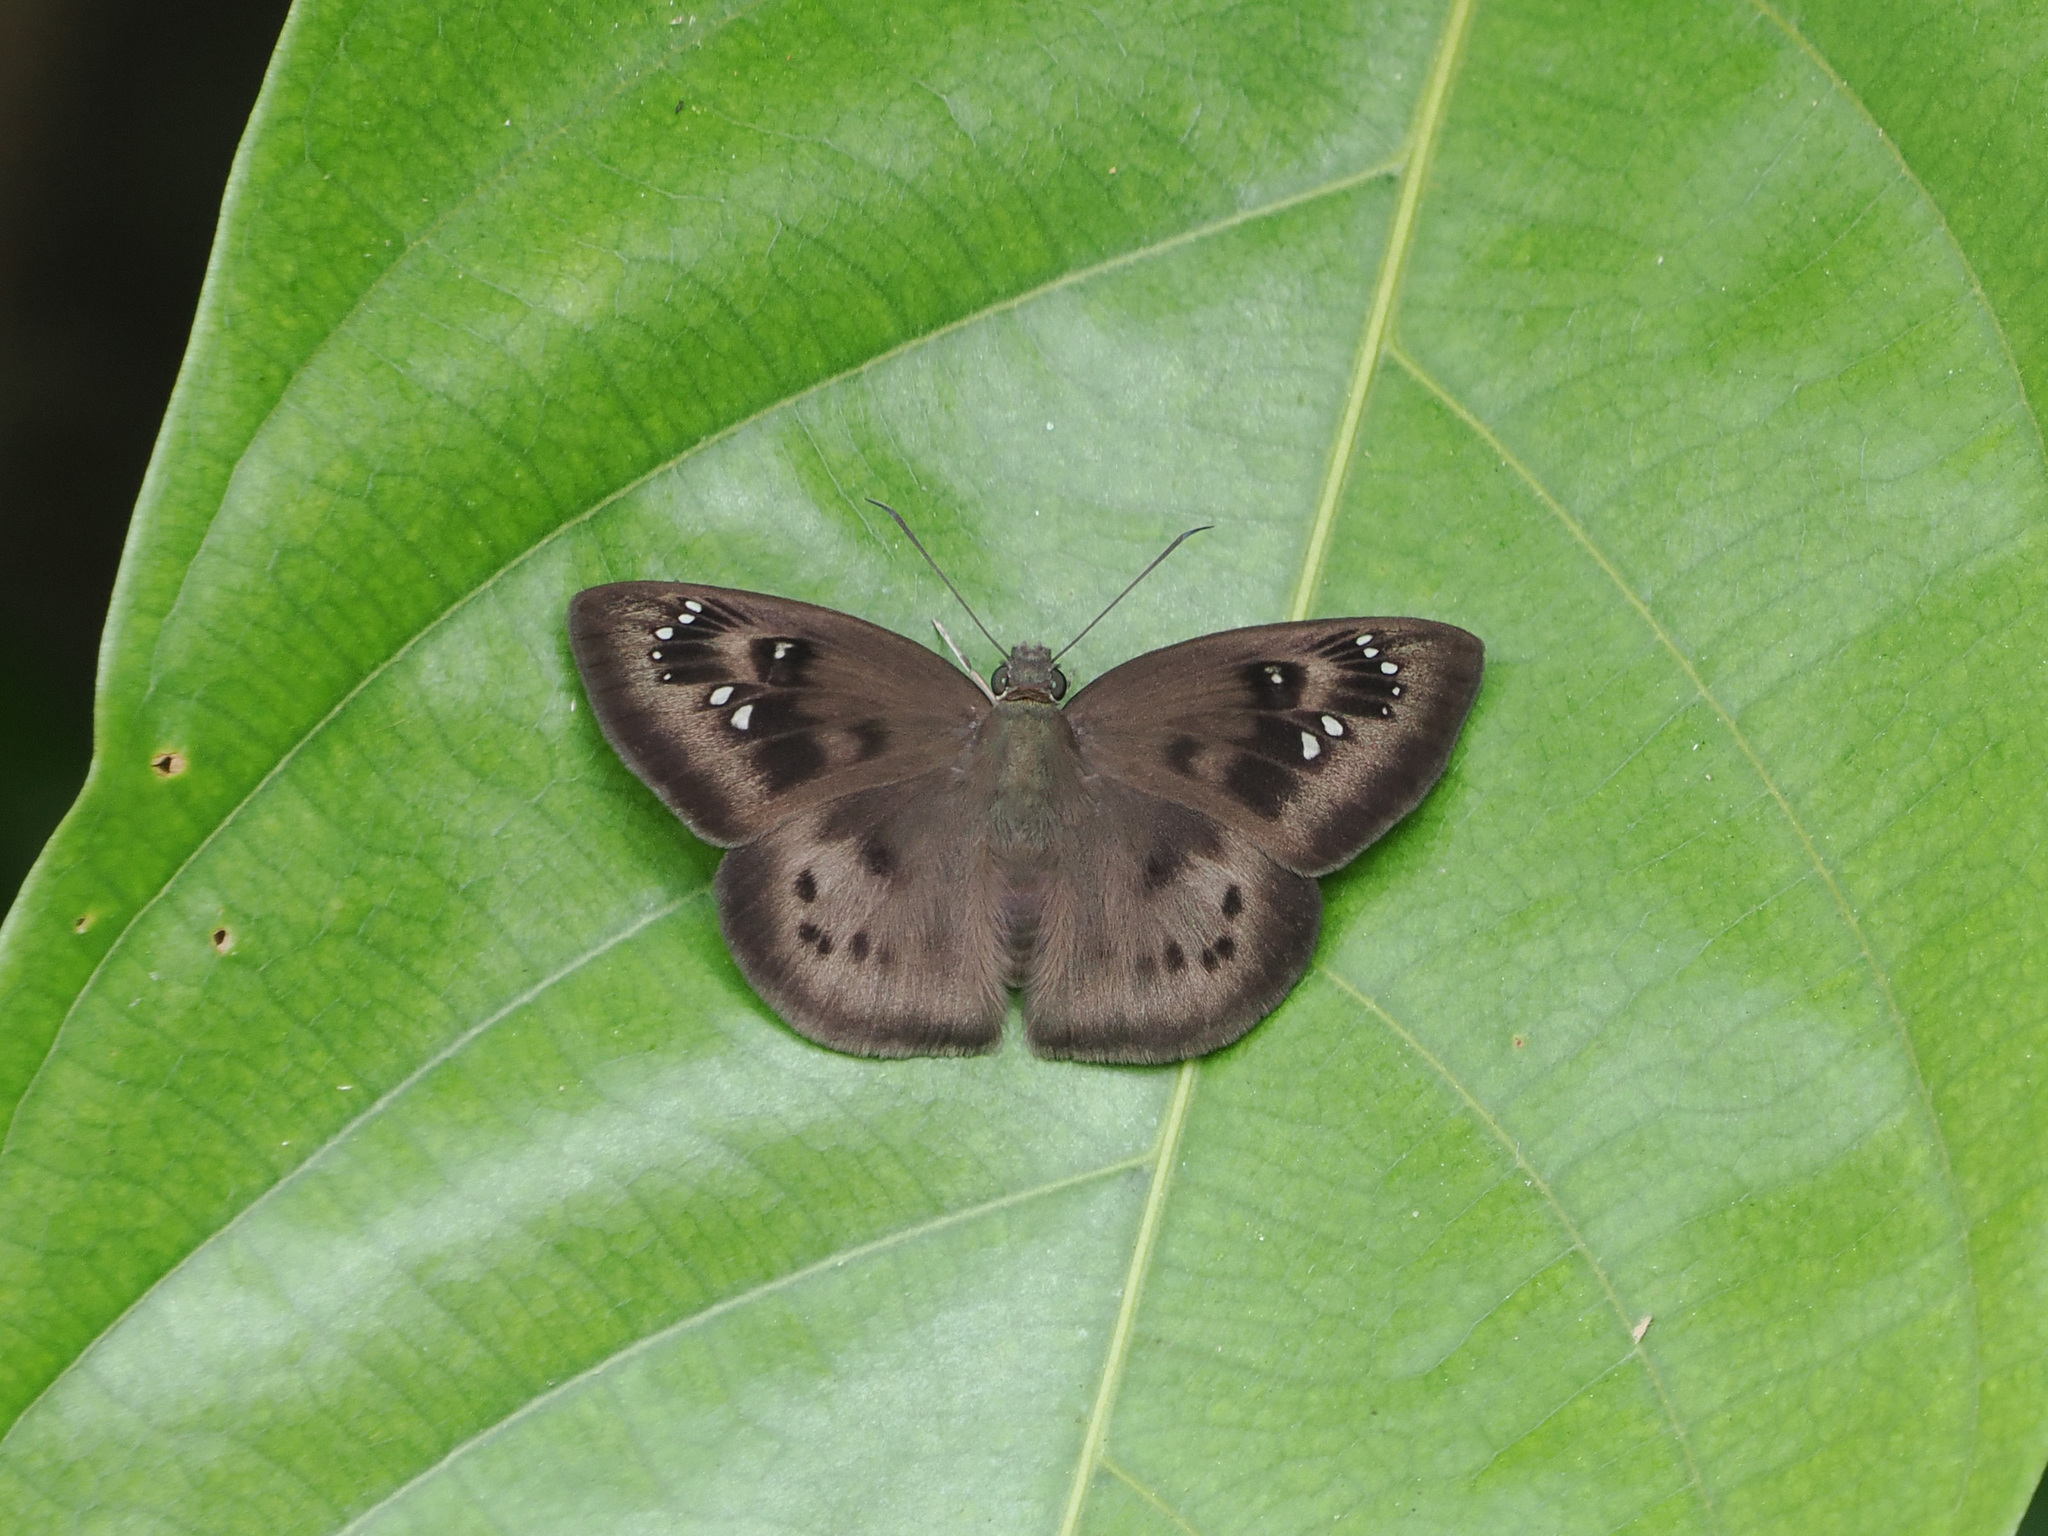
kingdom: Animalia
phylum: Arthropoda
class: Insecta
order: Lepidoptera
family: Hesperiidae
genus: Tagiades
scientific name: Tagiades japetus
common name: Pied flat
